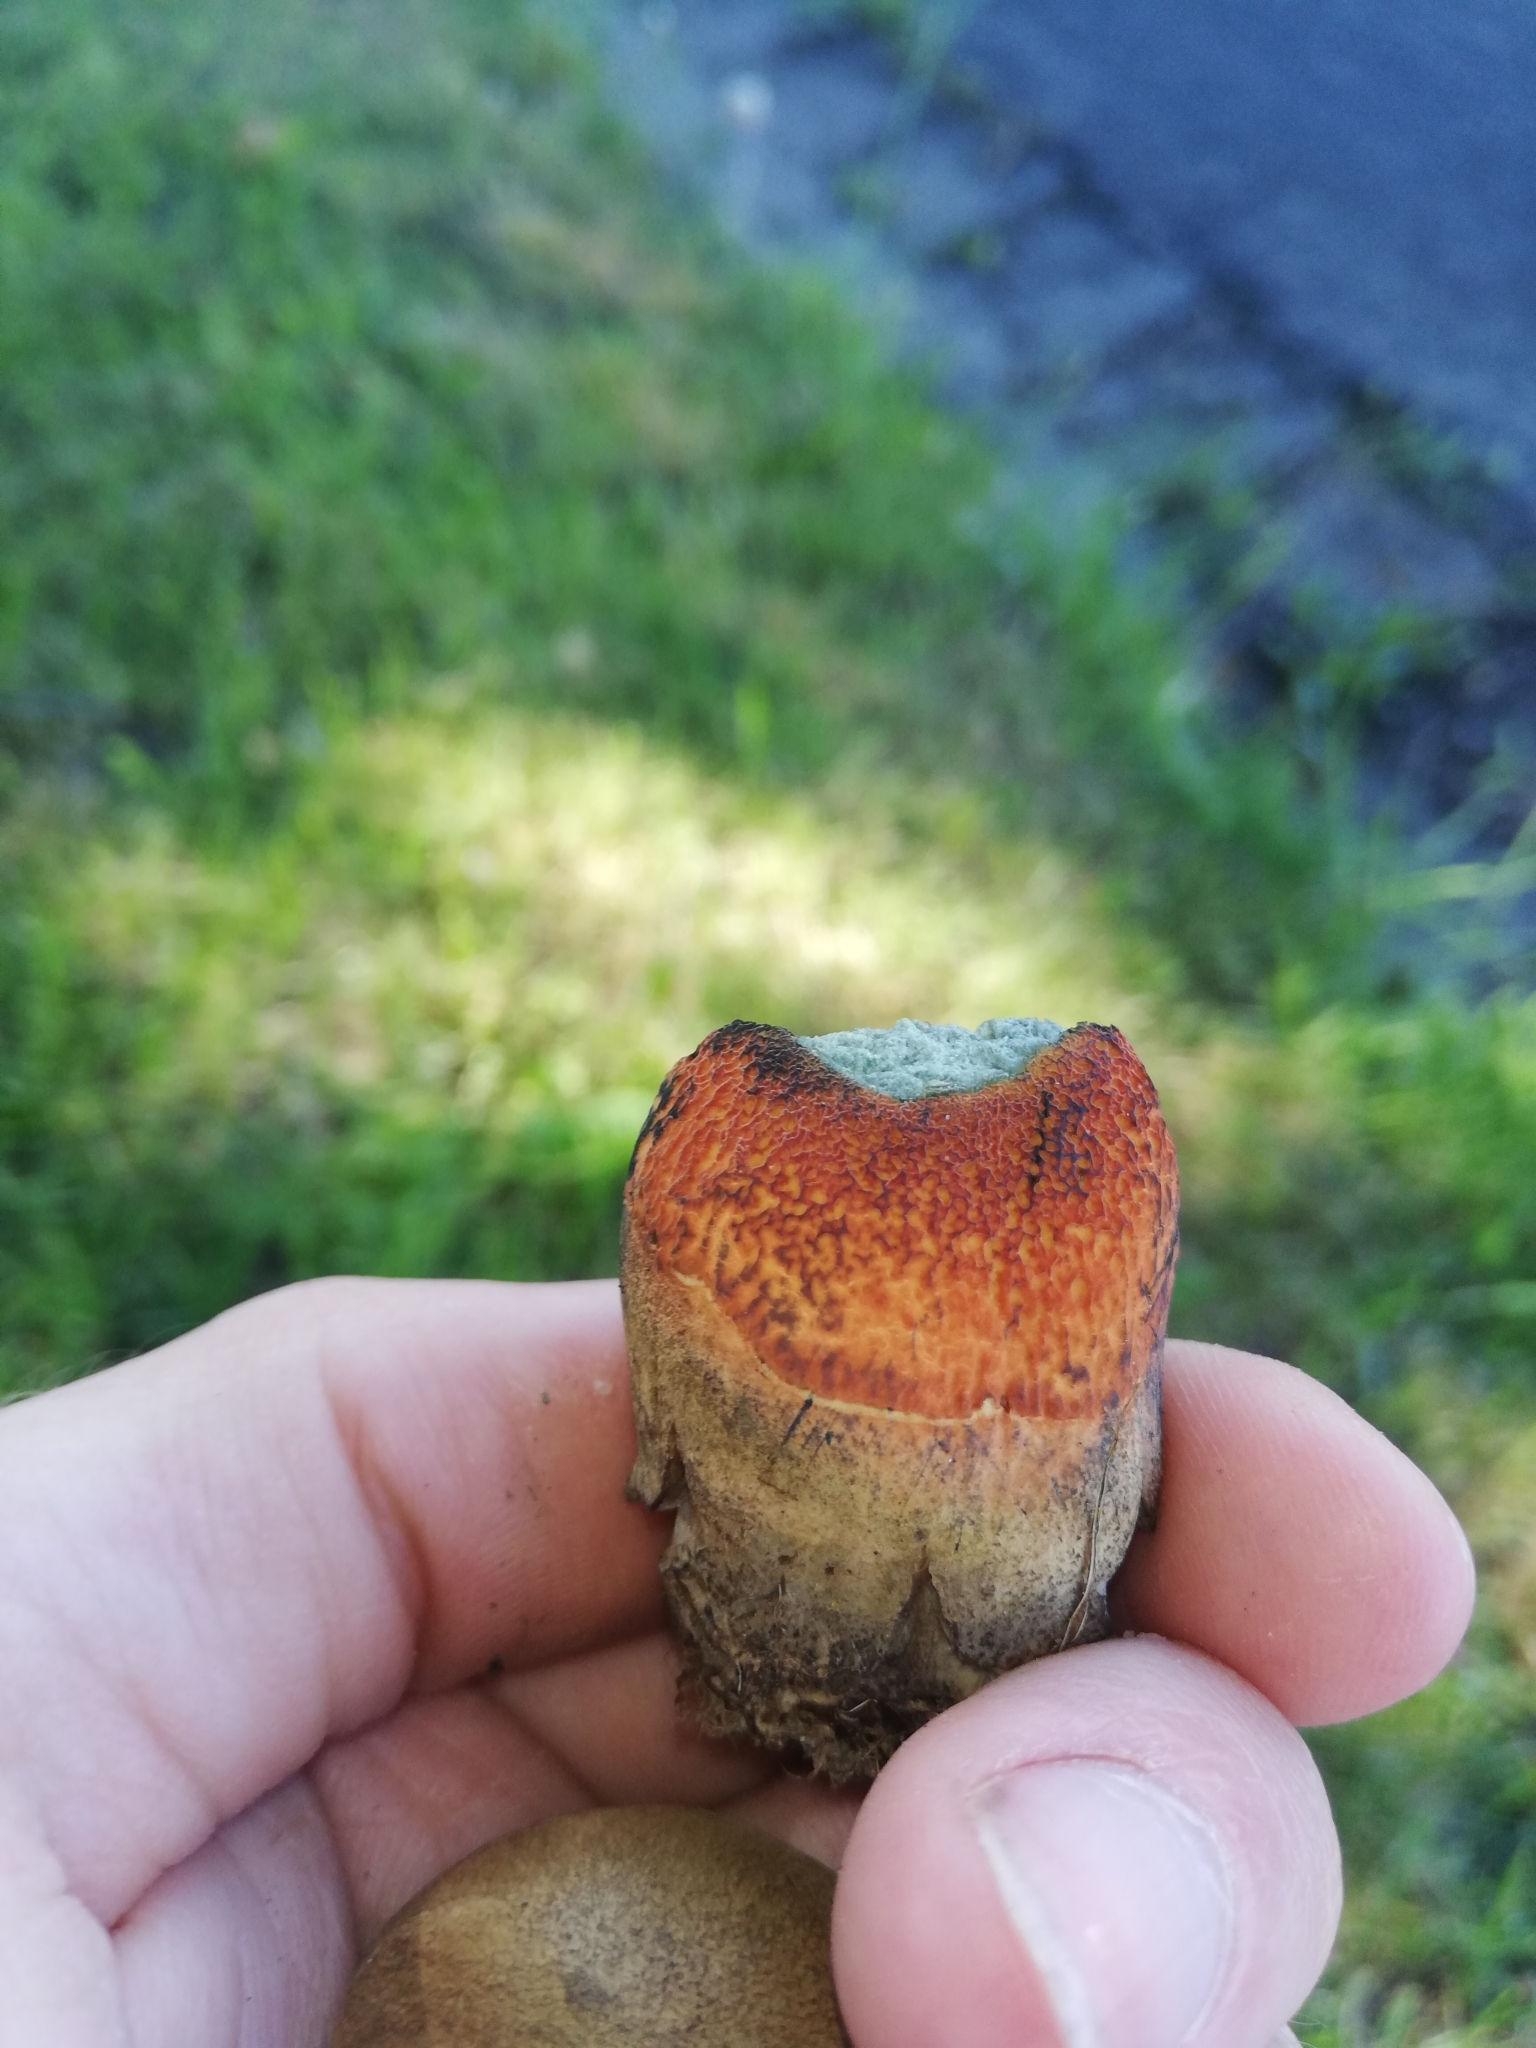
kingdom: Fungi
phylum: Basidiomycota
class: Agaricomycetes
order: Boletales
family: Boletaceae
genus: Suillellus
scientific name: Suillellus luridus
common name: Lurid bolete
